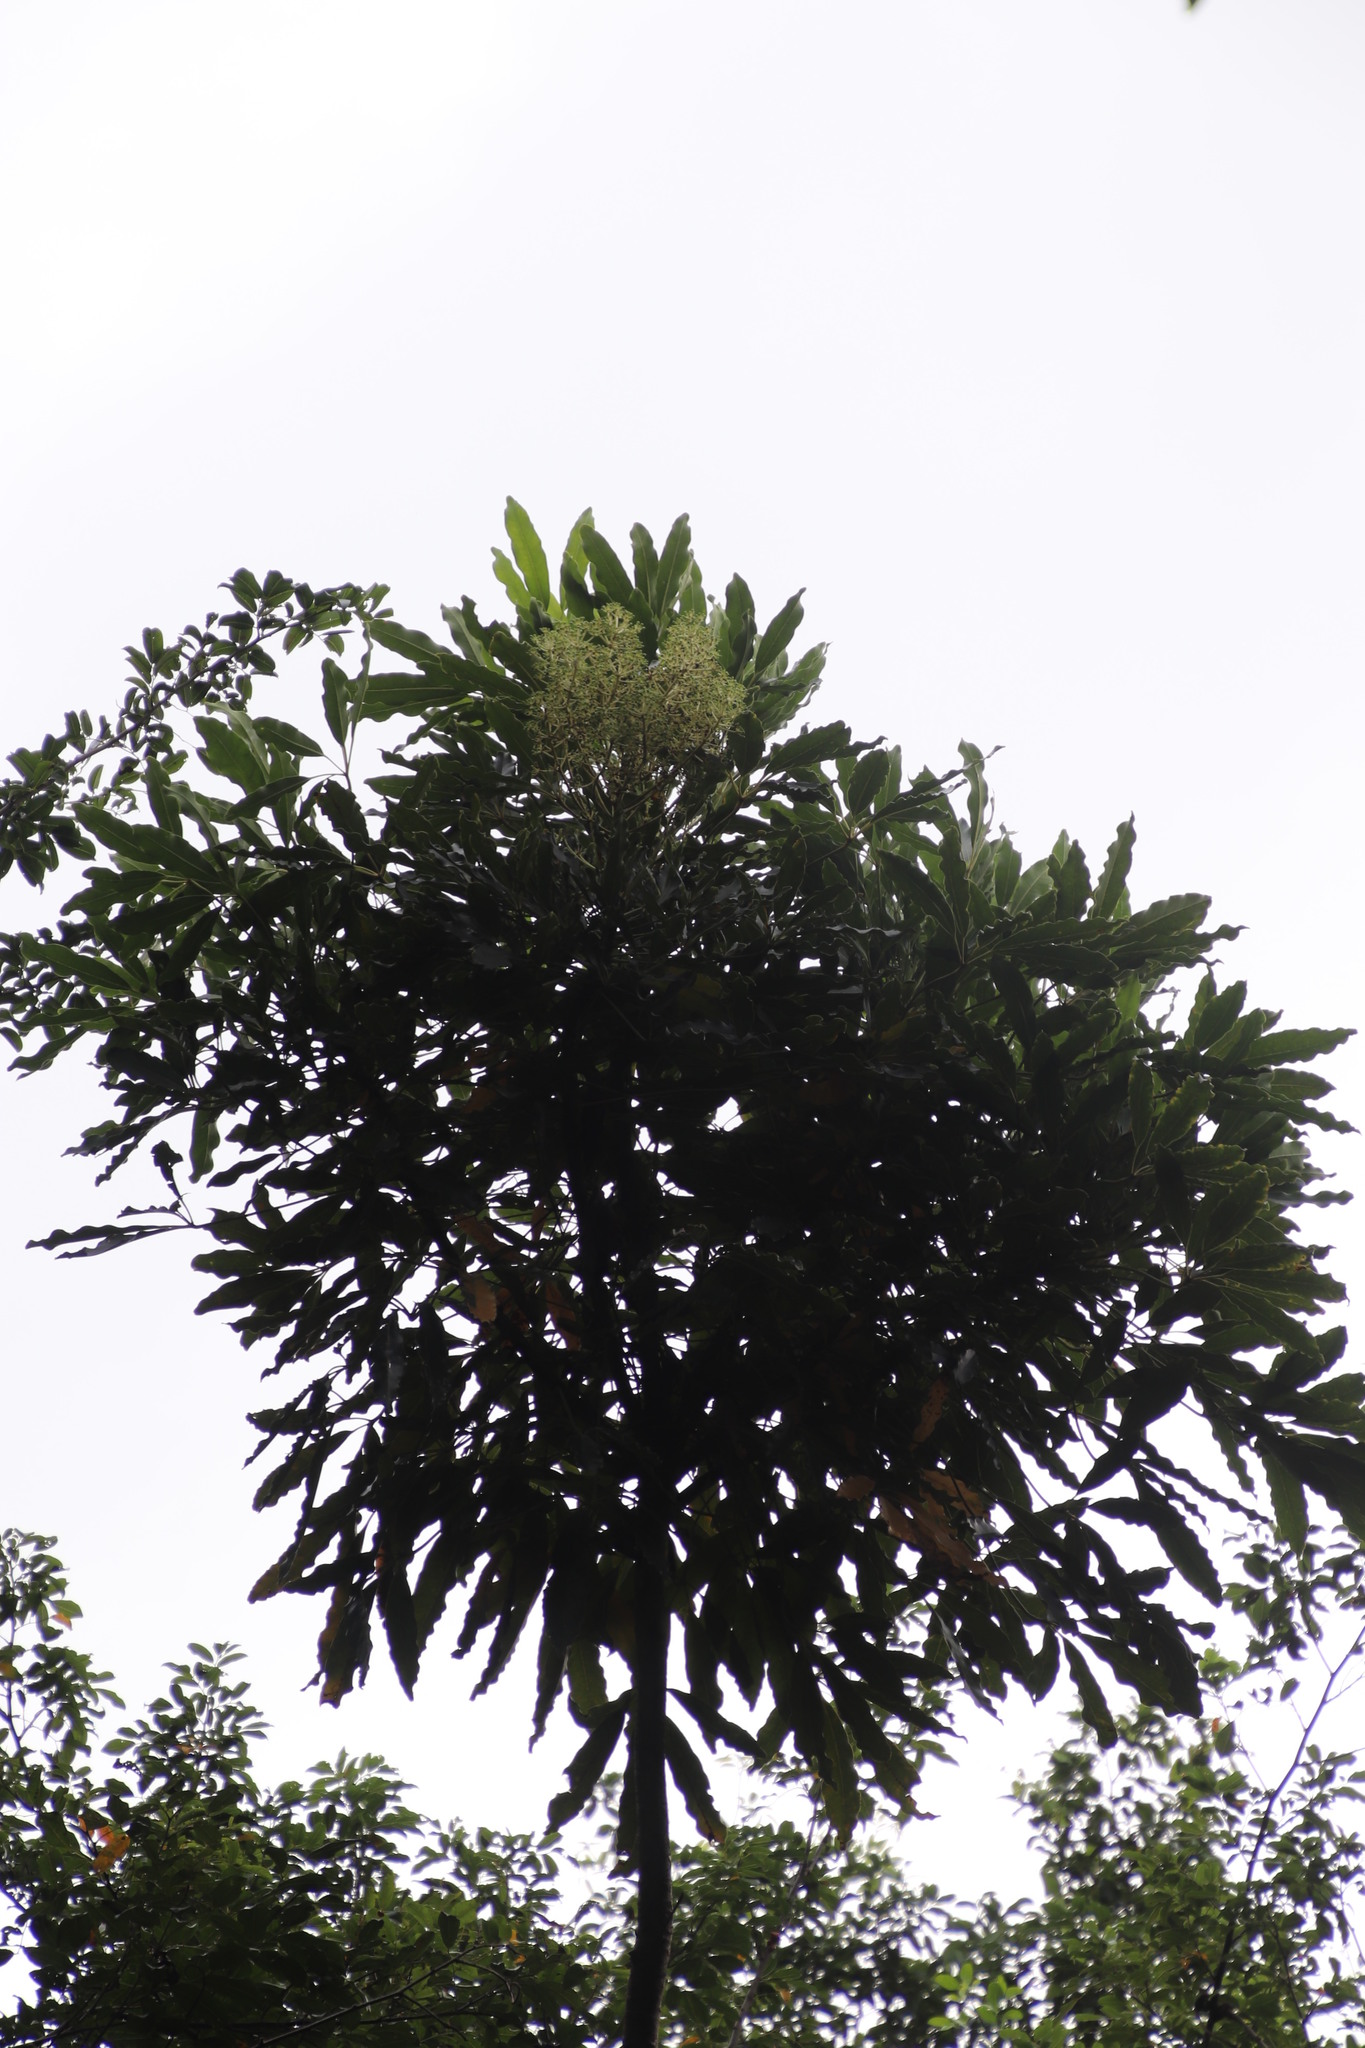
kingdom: Plantae
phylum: Tracheophyta
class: Magnoliopsida
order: Apiales
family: Araliaceae
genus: Neocussonia
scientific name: Neocussonia umbellifera
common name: False cabbage tree
